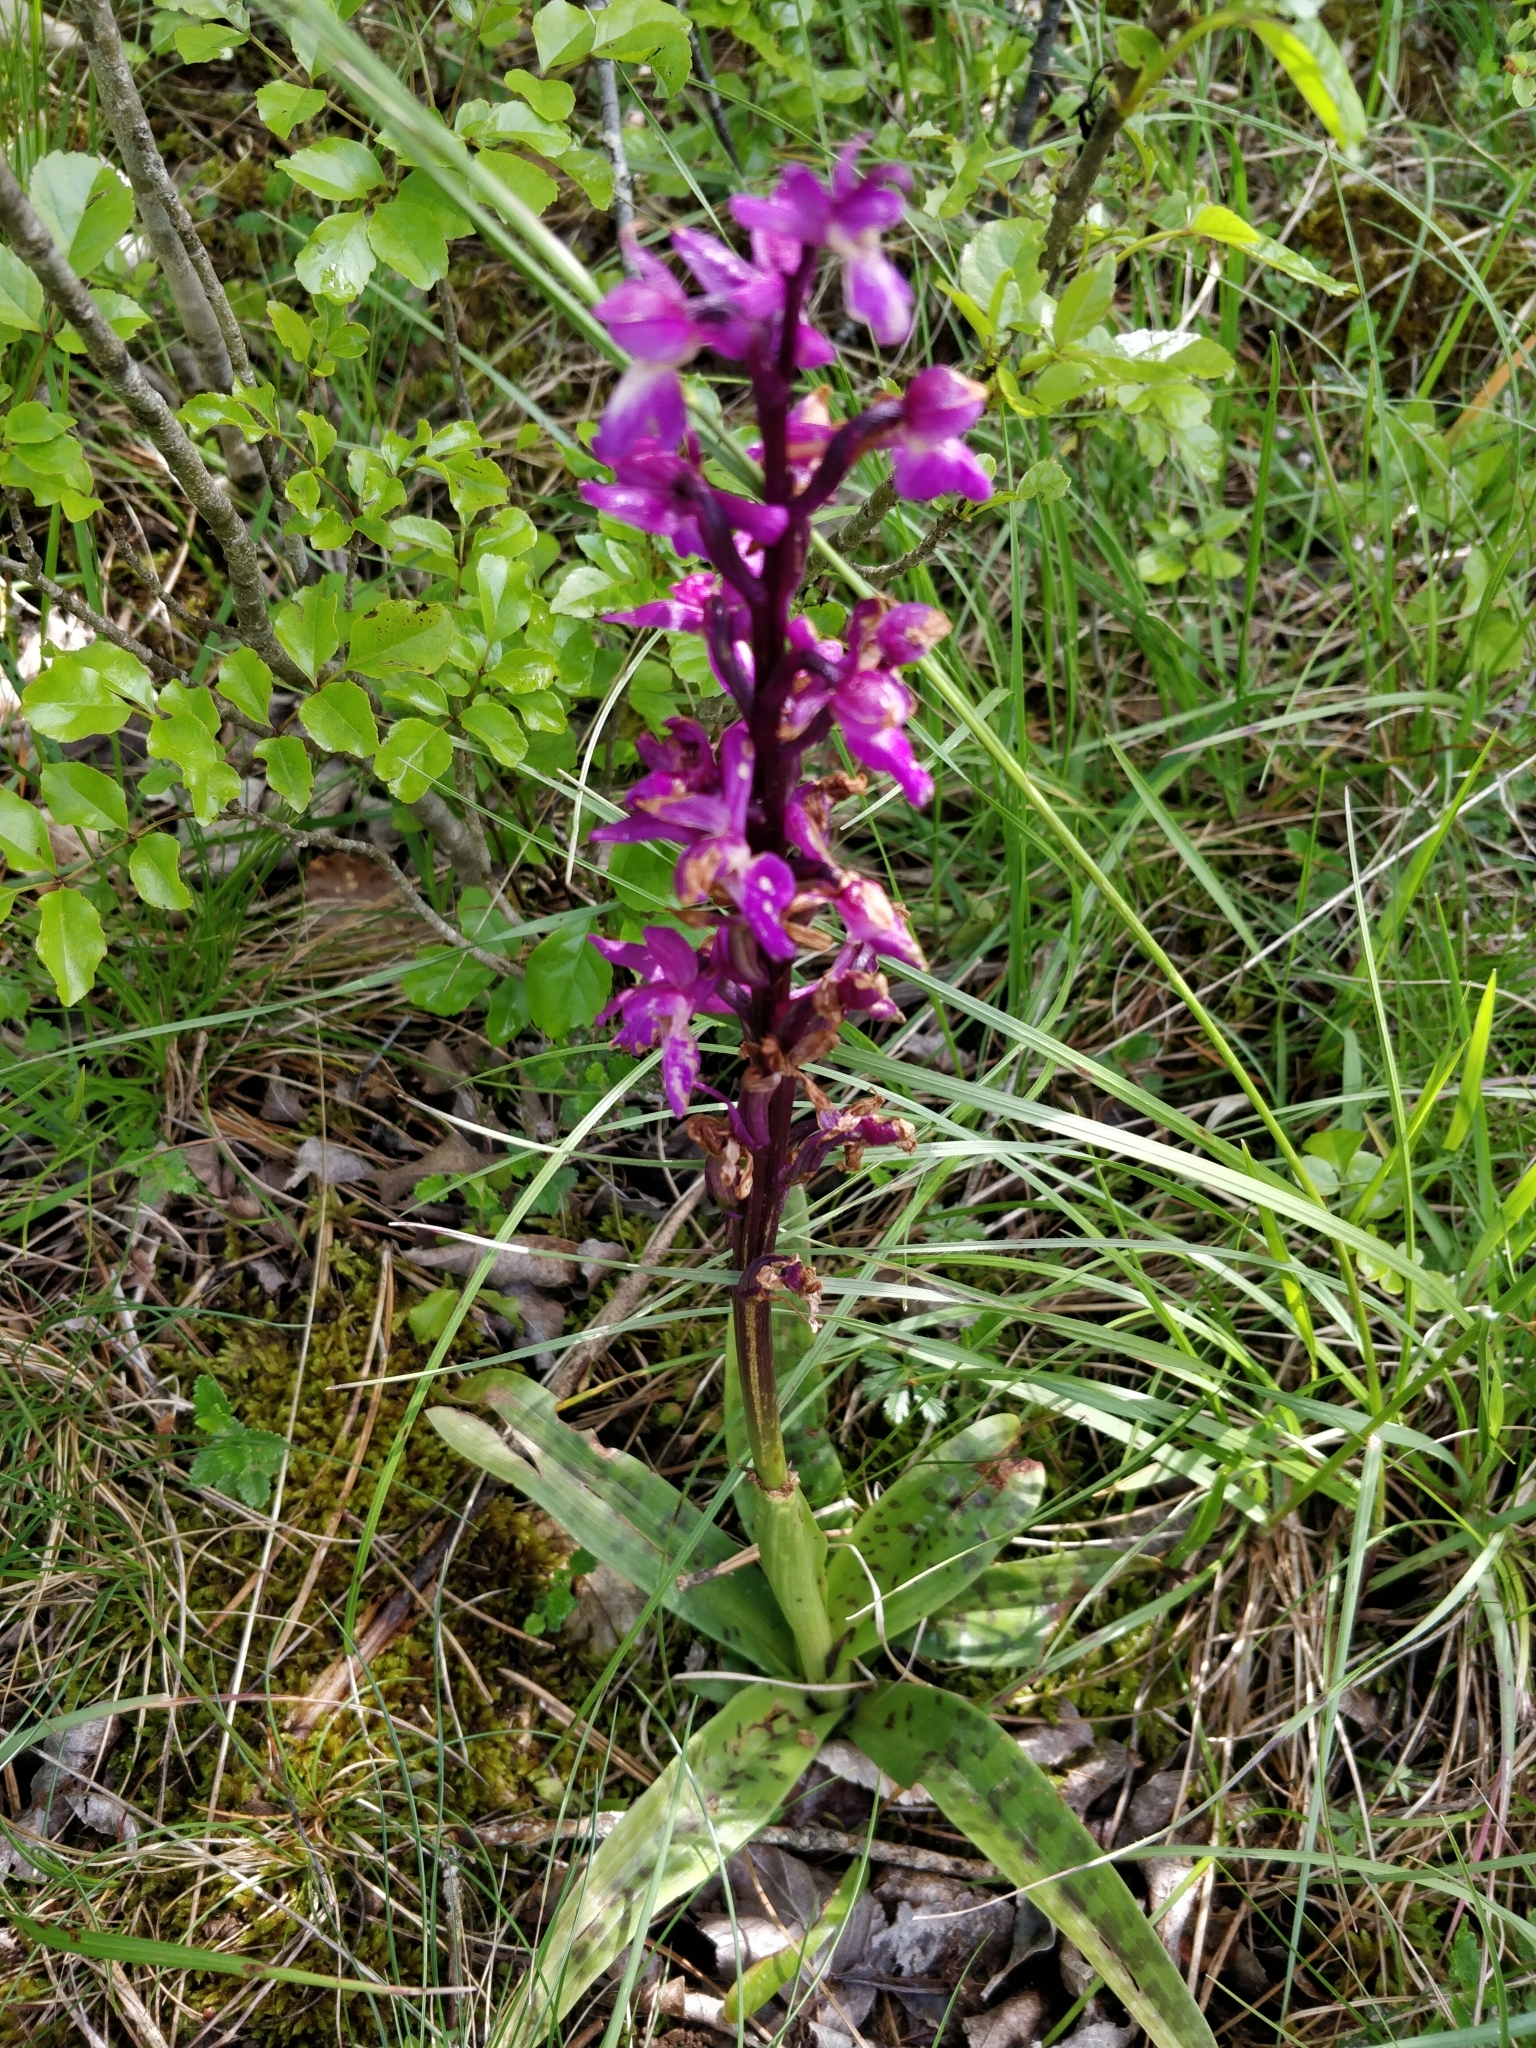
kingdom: Plantae
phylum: Tracheophyta
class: Liliopsida
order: Asparagales
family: Orchidaceae
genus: Orchis
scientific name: Orchis mascula
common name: Early-purple orchid
